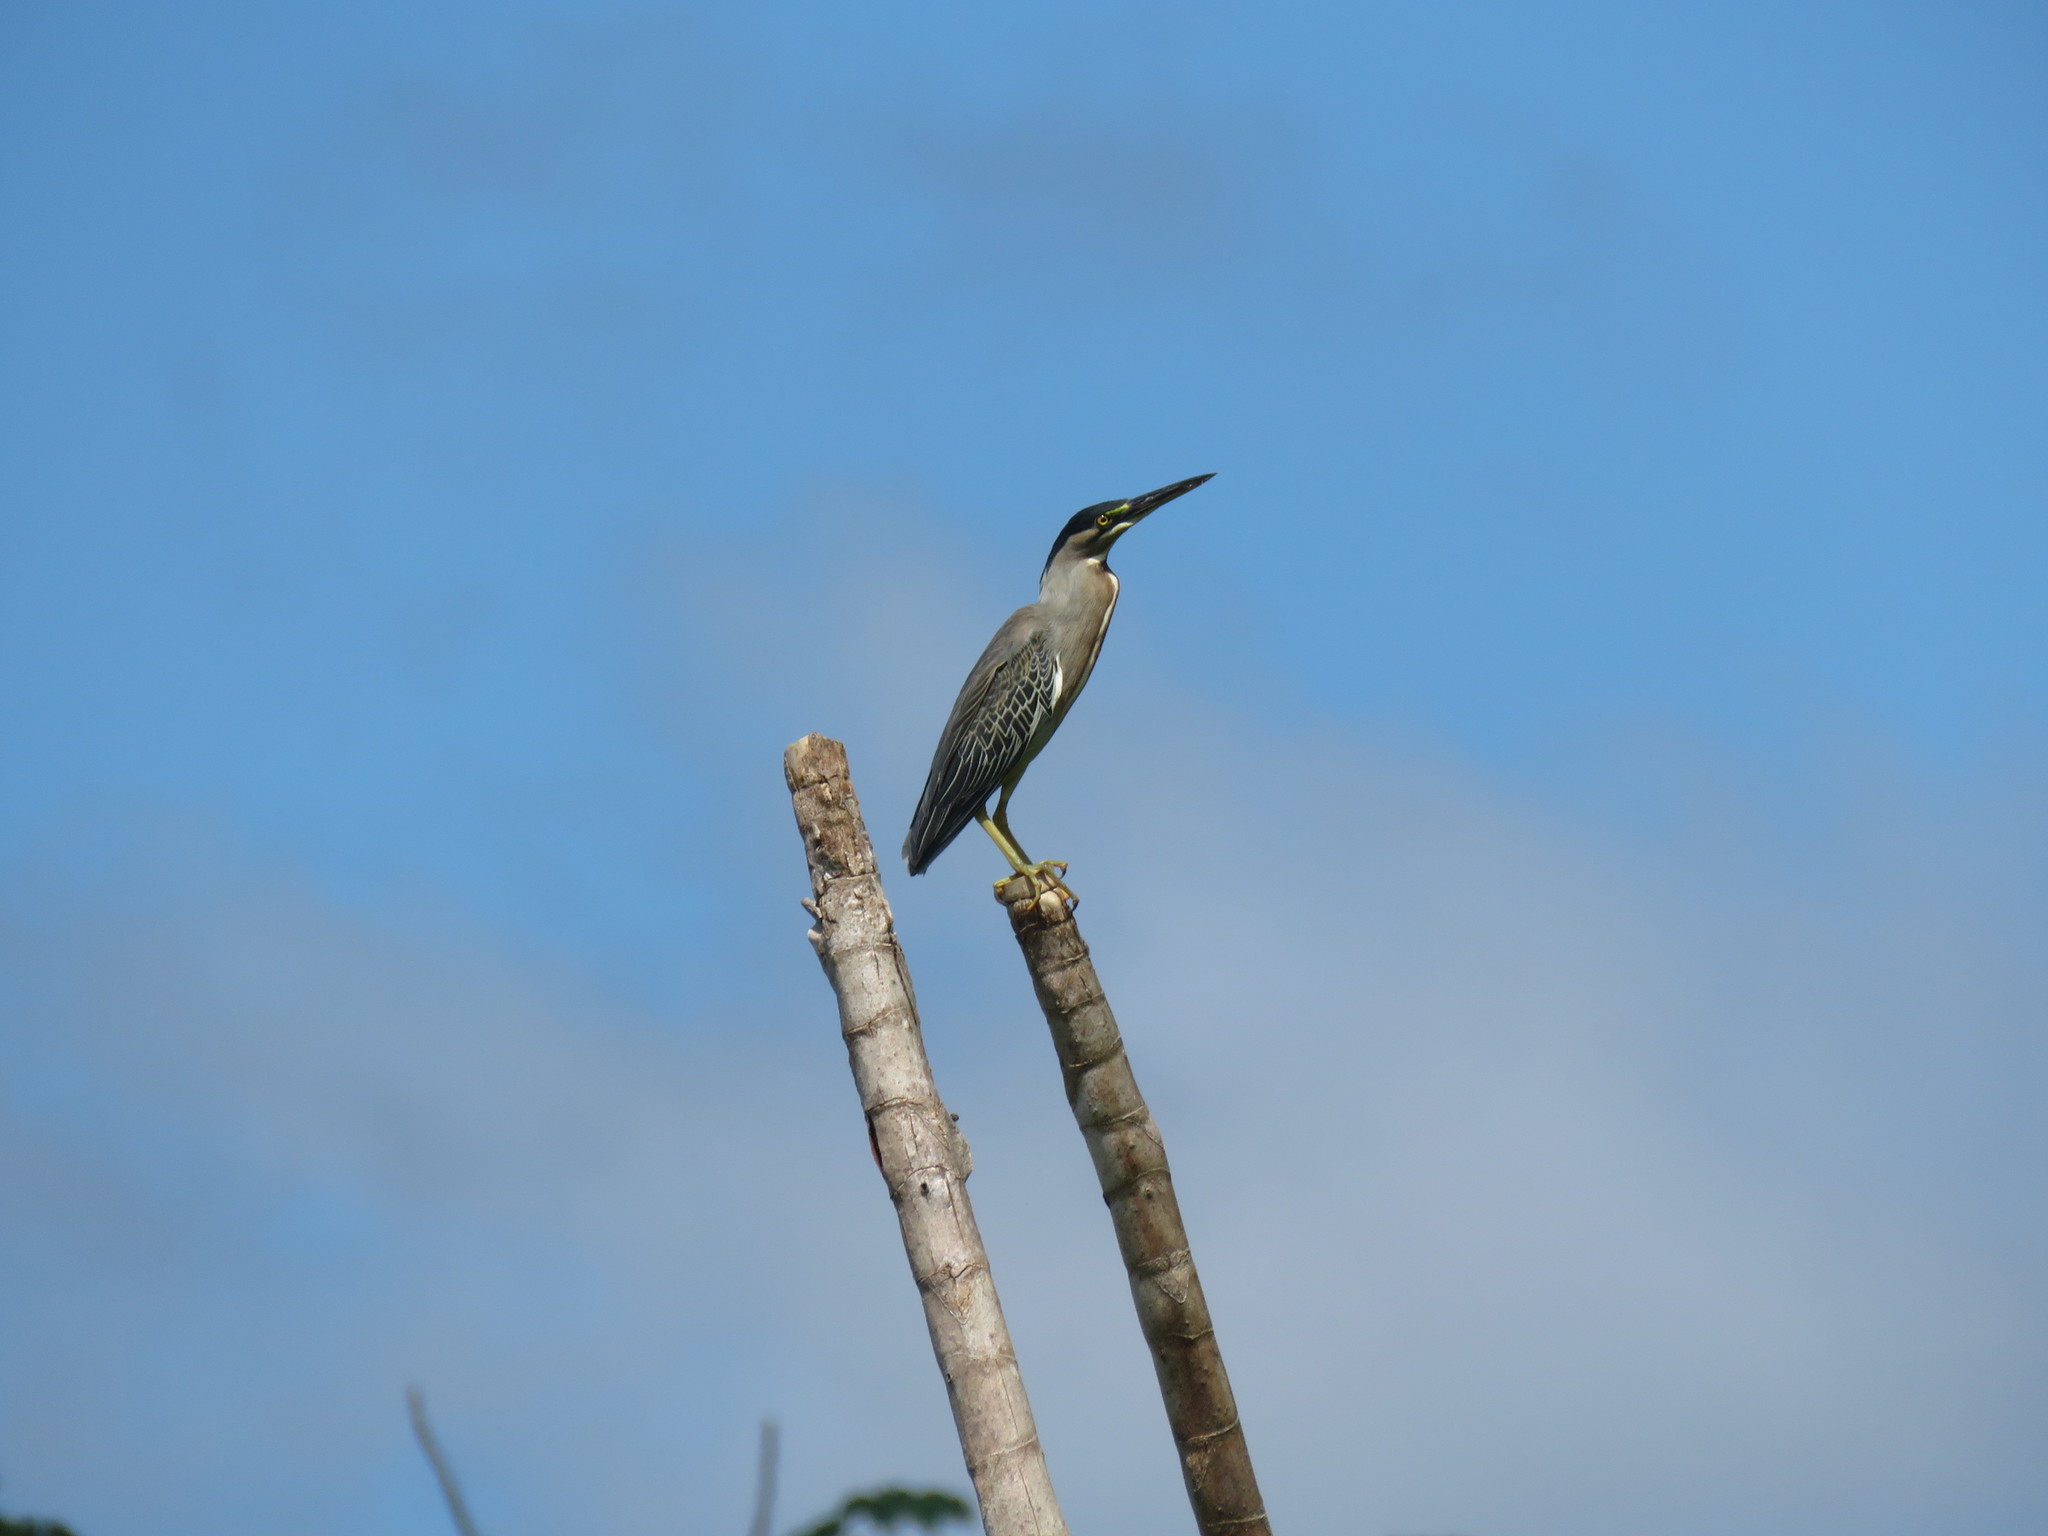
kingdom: Animalia
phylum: Chordata
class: Aves
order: Pelecaniformes
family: Ardeidae
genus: Butorides
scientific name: Butorides striata
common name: Striated heron
